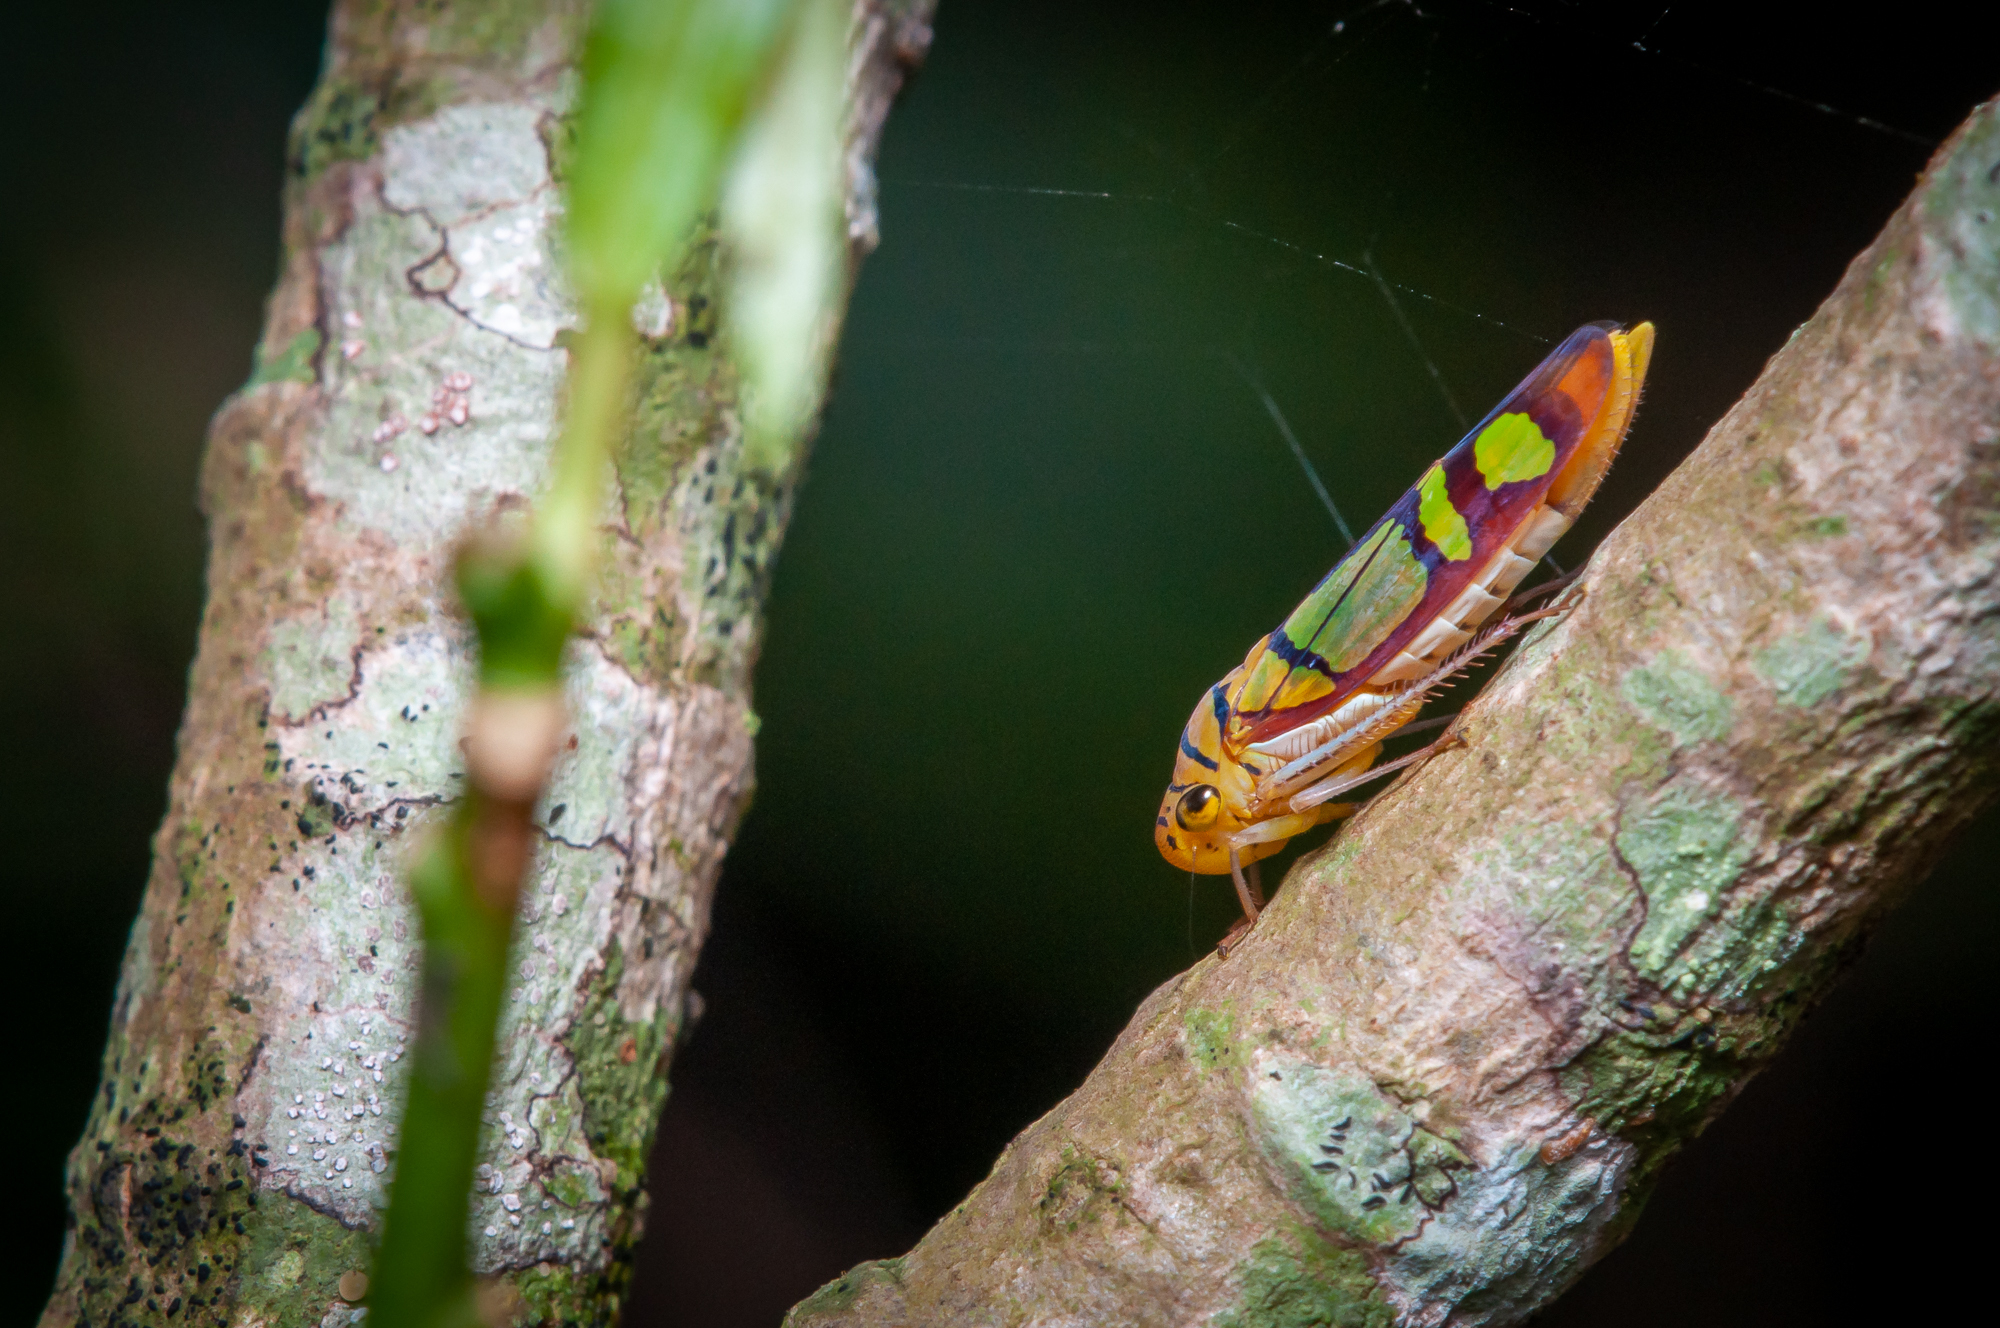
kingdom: Animalia
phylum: Arthropoda
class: Insecta
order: Hemiptera
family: Cicadellidae
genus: Dilobopterus
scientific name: Dilobopterus instratus
